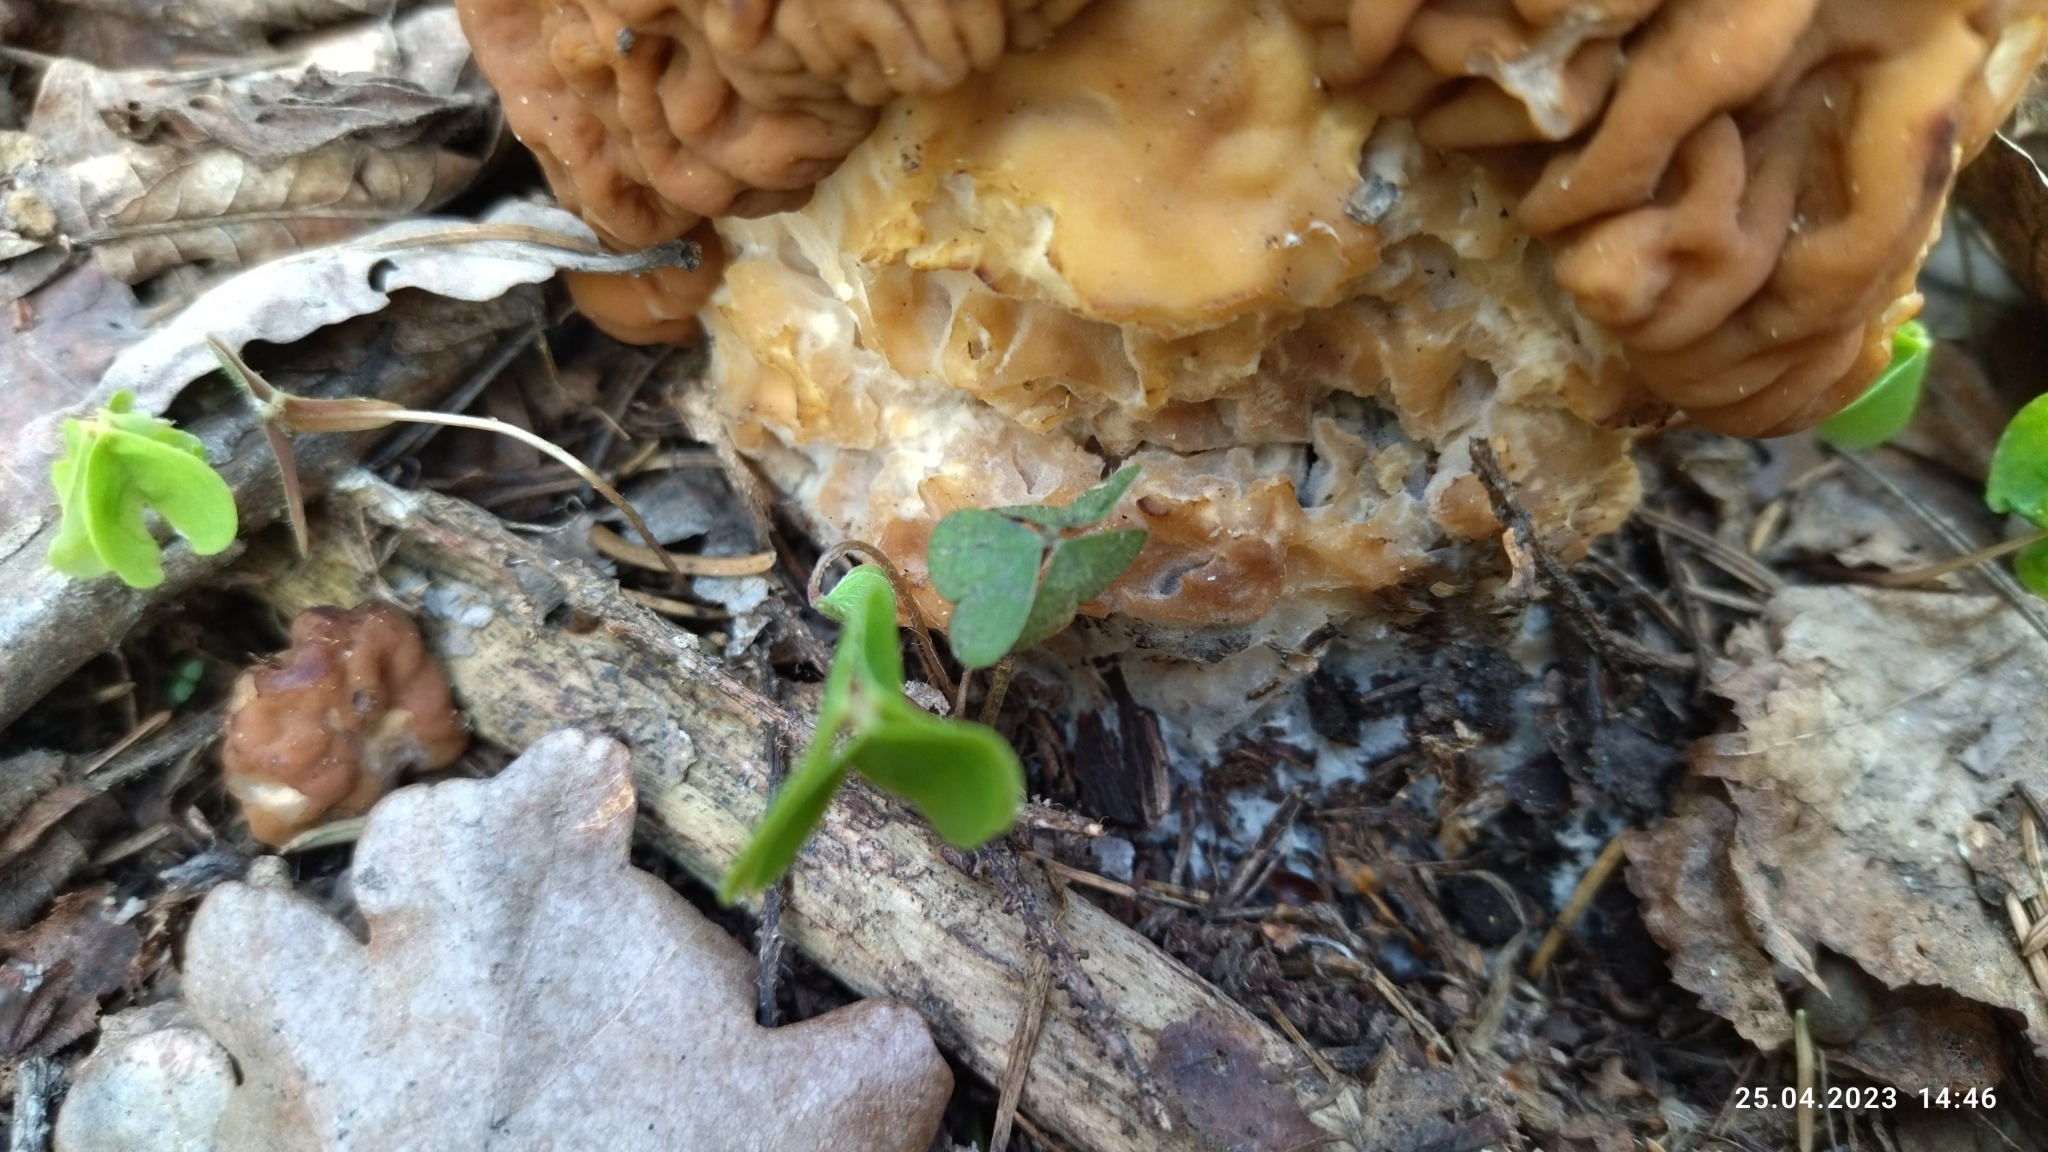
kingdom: Fungi
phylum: Ascomycota
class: Pezizomycetes
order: Pezizales
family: Discinaceae
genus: Gyromitra
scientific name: Gyromitra gigas
